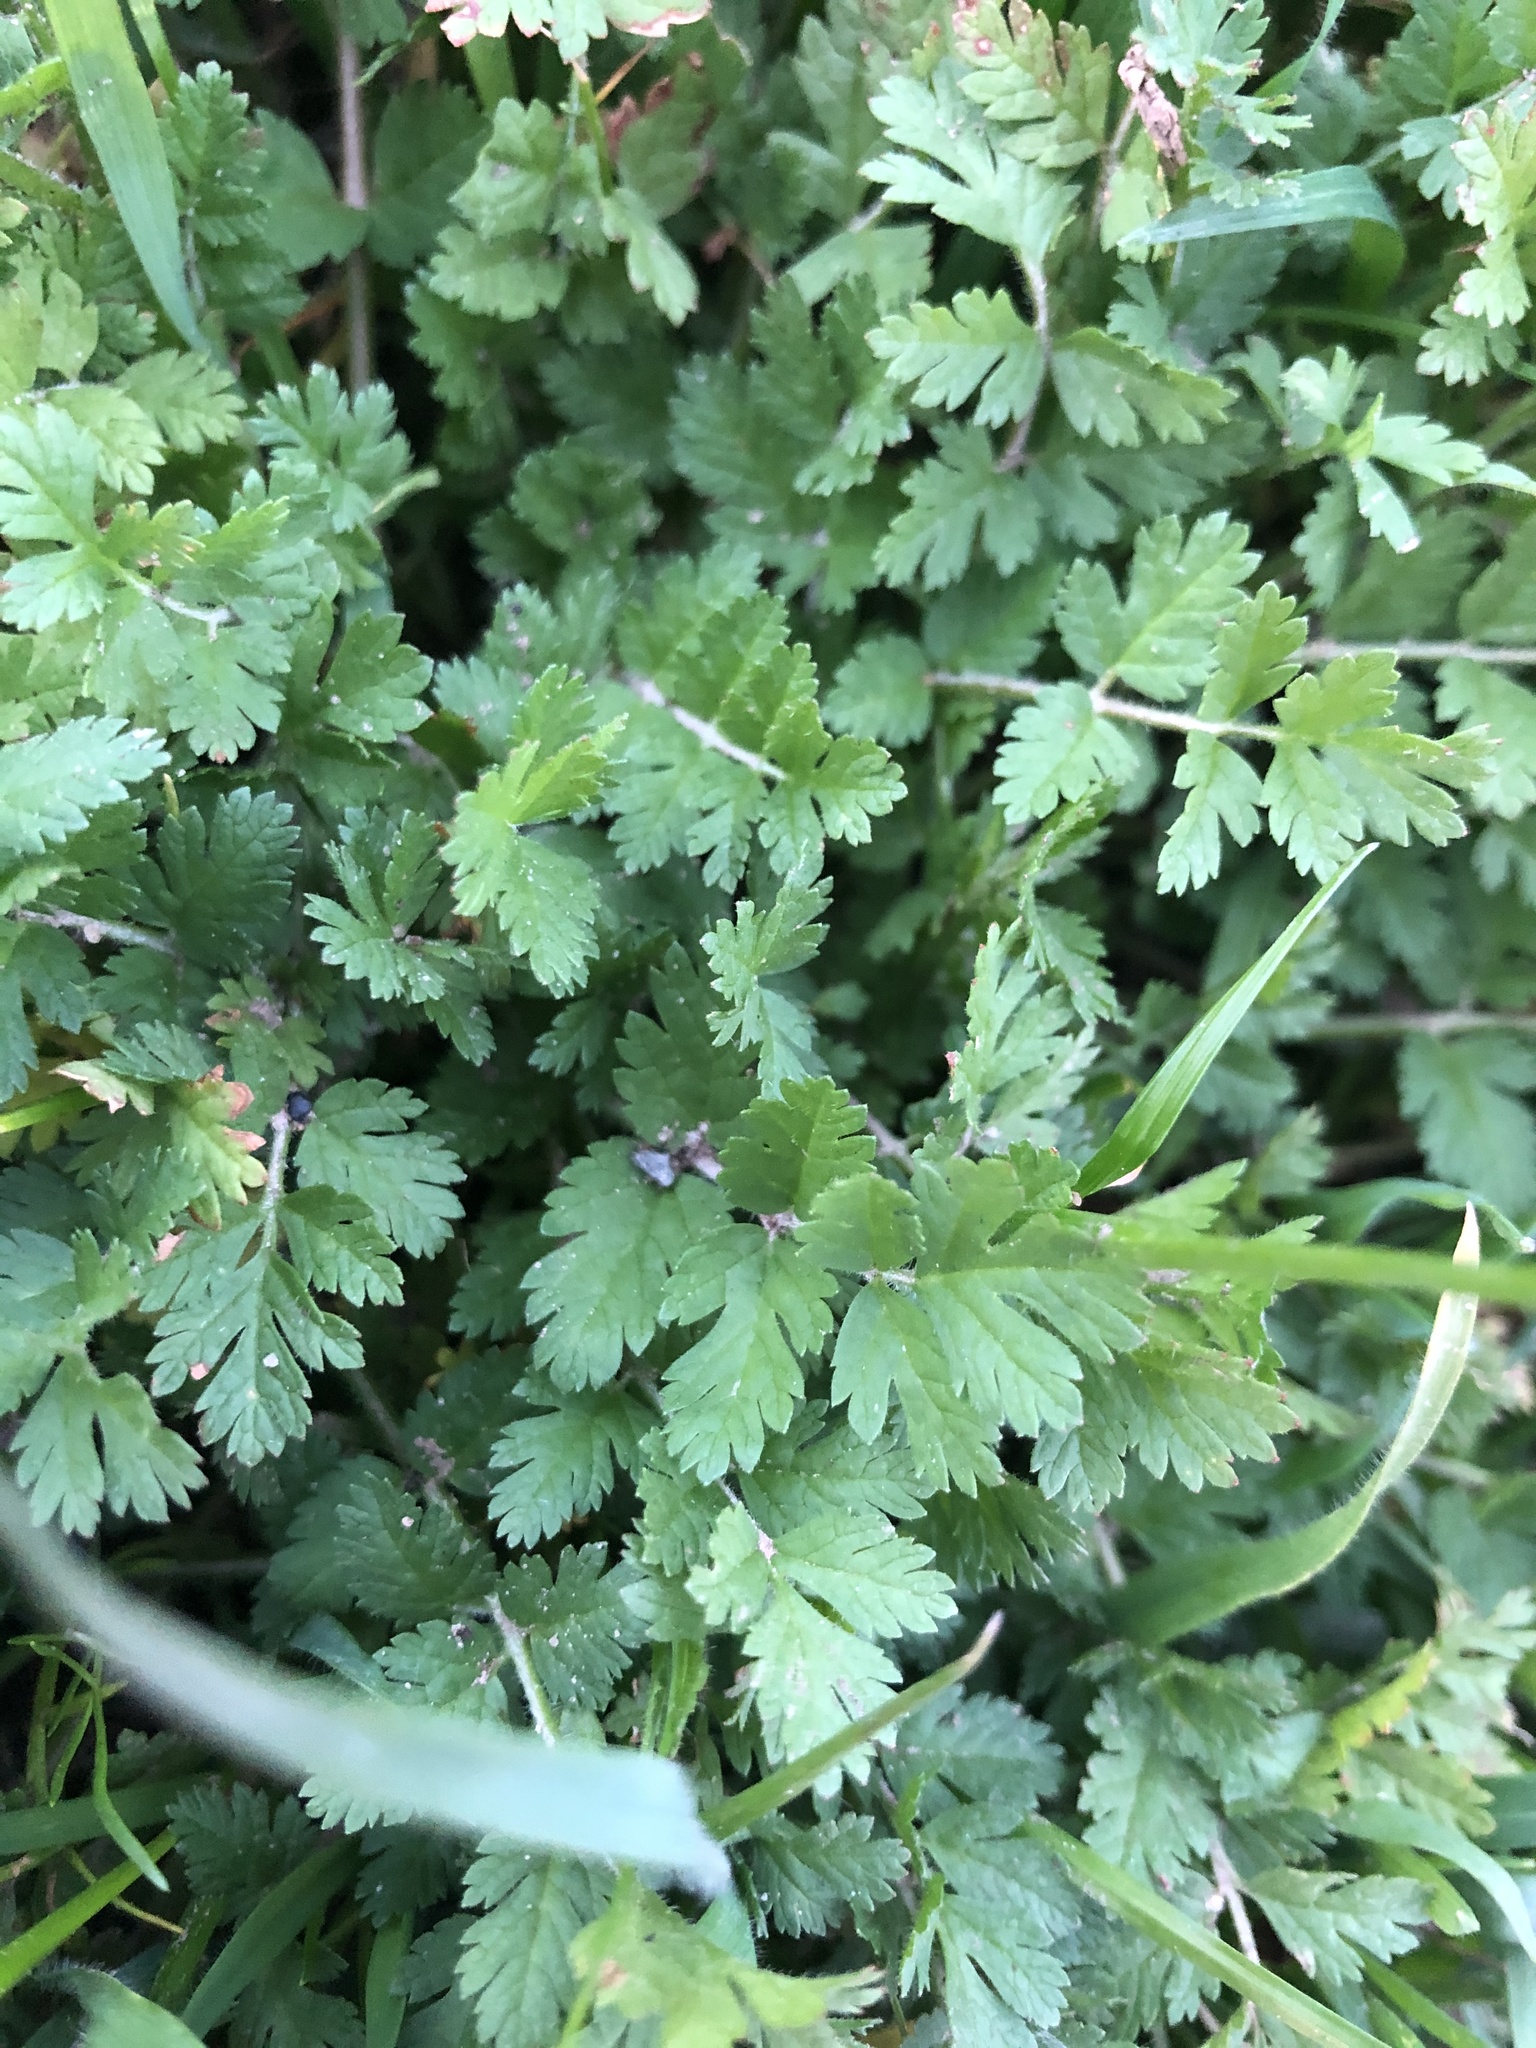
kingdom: Plantae
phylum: Tracheophyta
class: Magnoliopsida
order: Geraniales
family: Geraniaceae
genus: Erodium
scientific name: Erodium moschatum
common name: Musk stork's-bill
